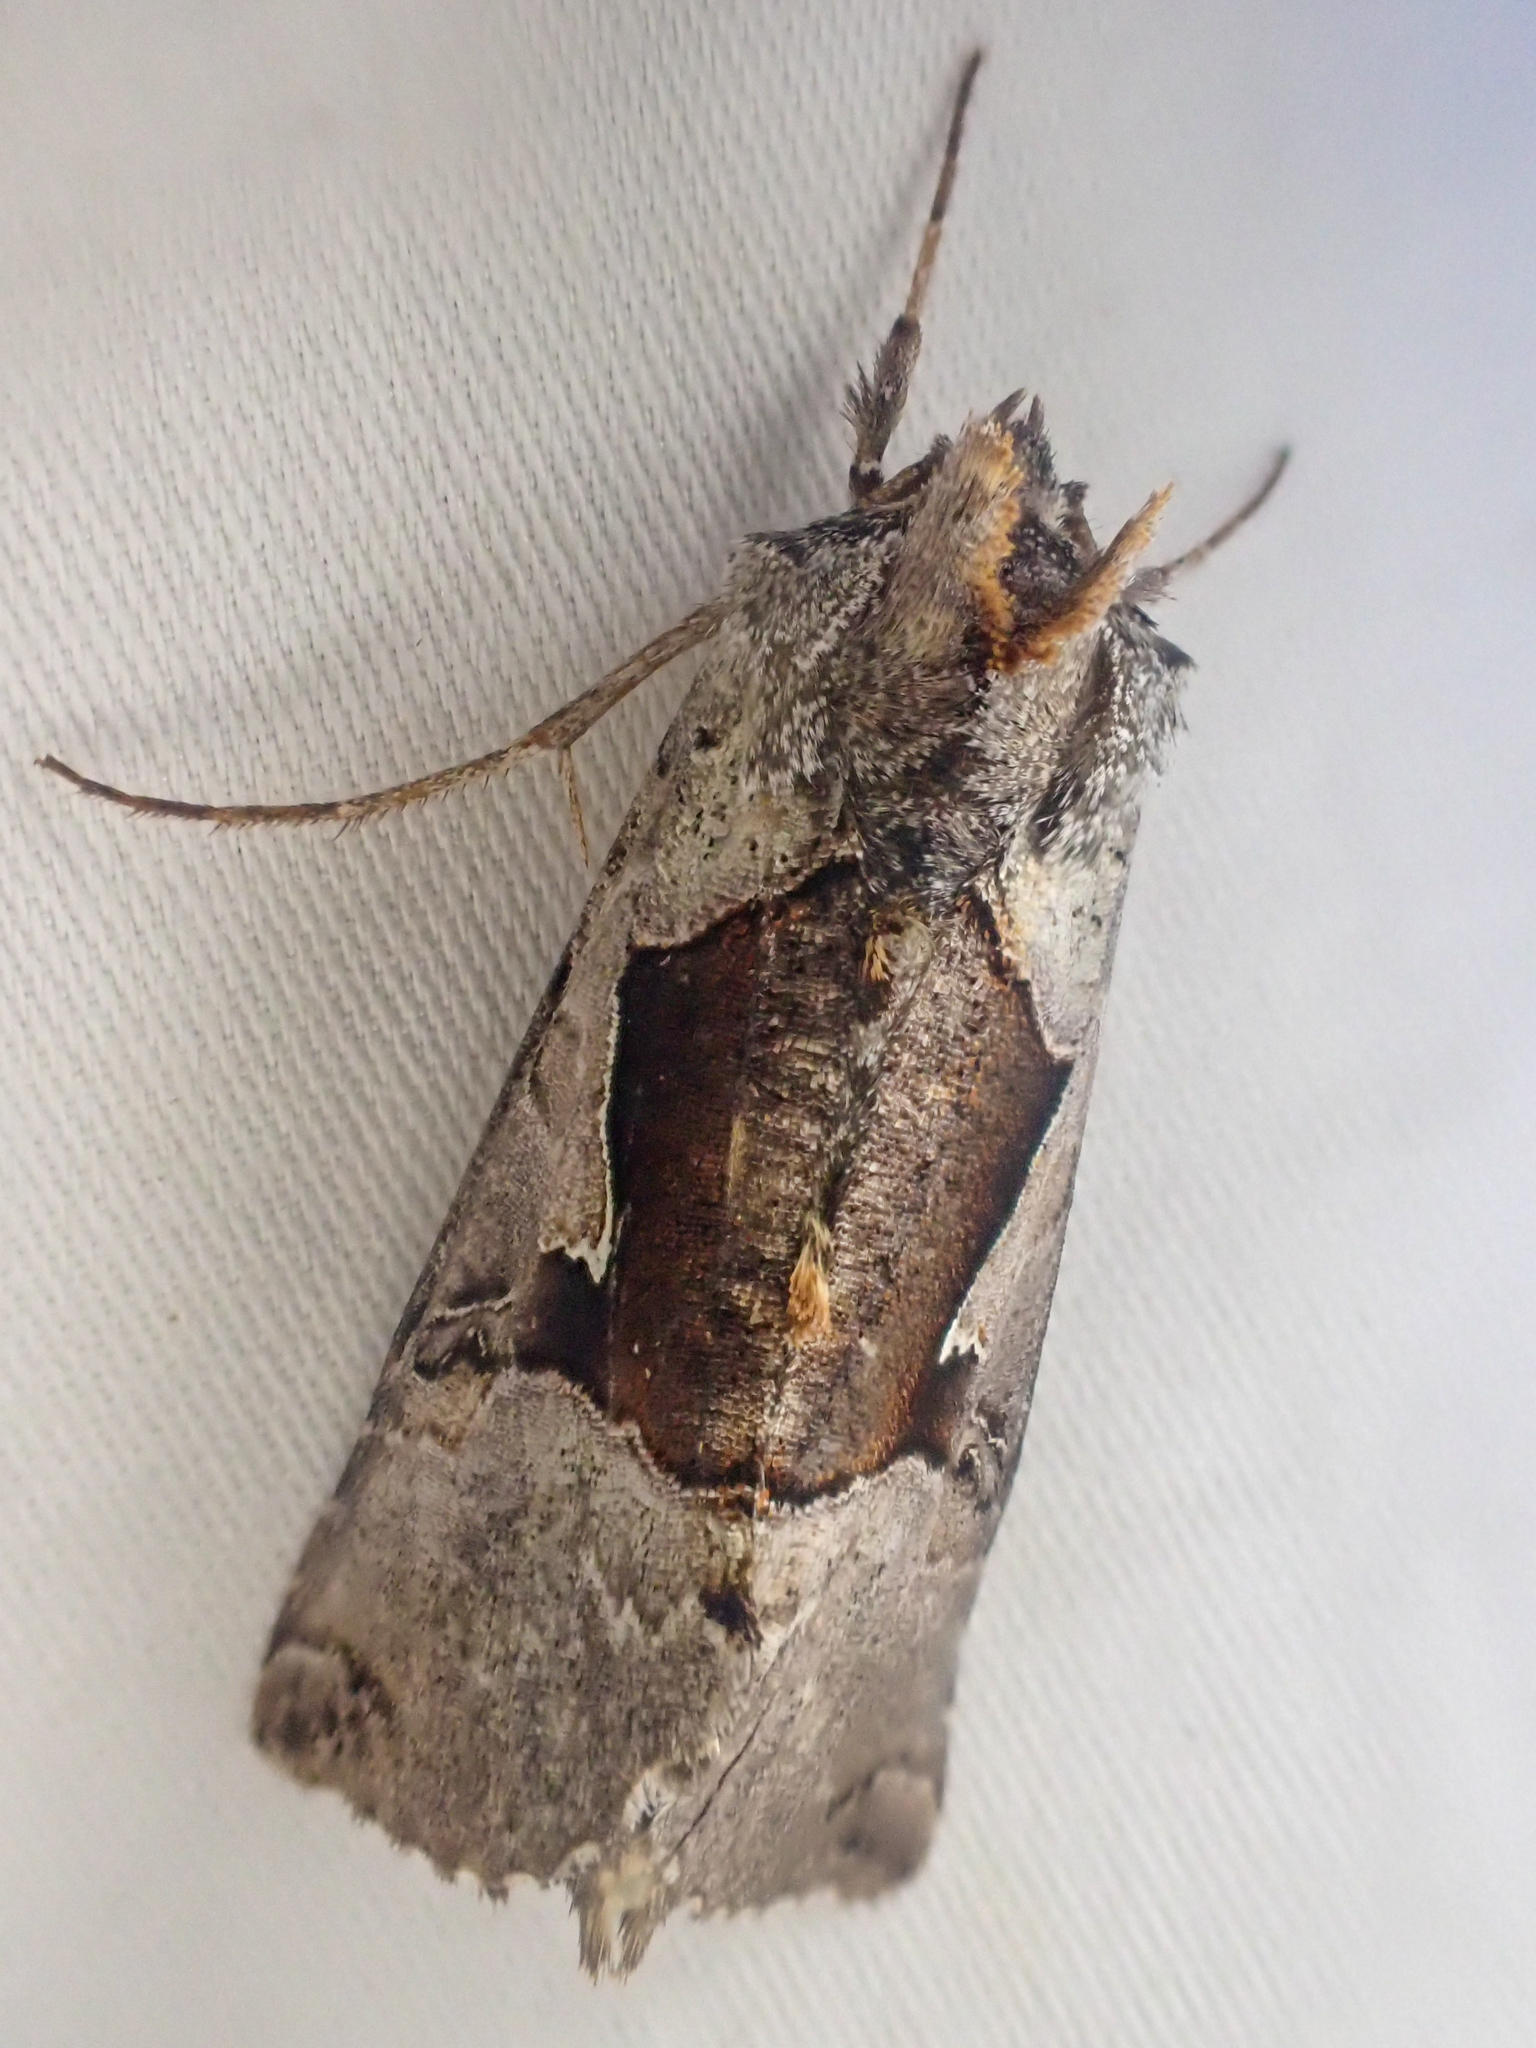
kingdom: Animalia
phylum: Arthropoda
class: Insecta
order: Lepidoptera
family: Noctuidae
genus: Autographa
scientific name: Autographa ampla
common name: Large looper moth
